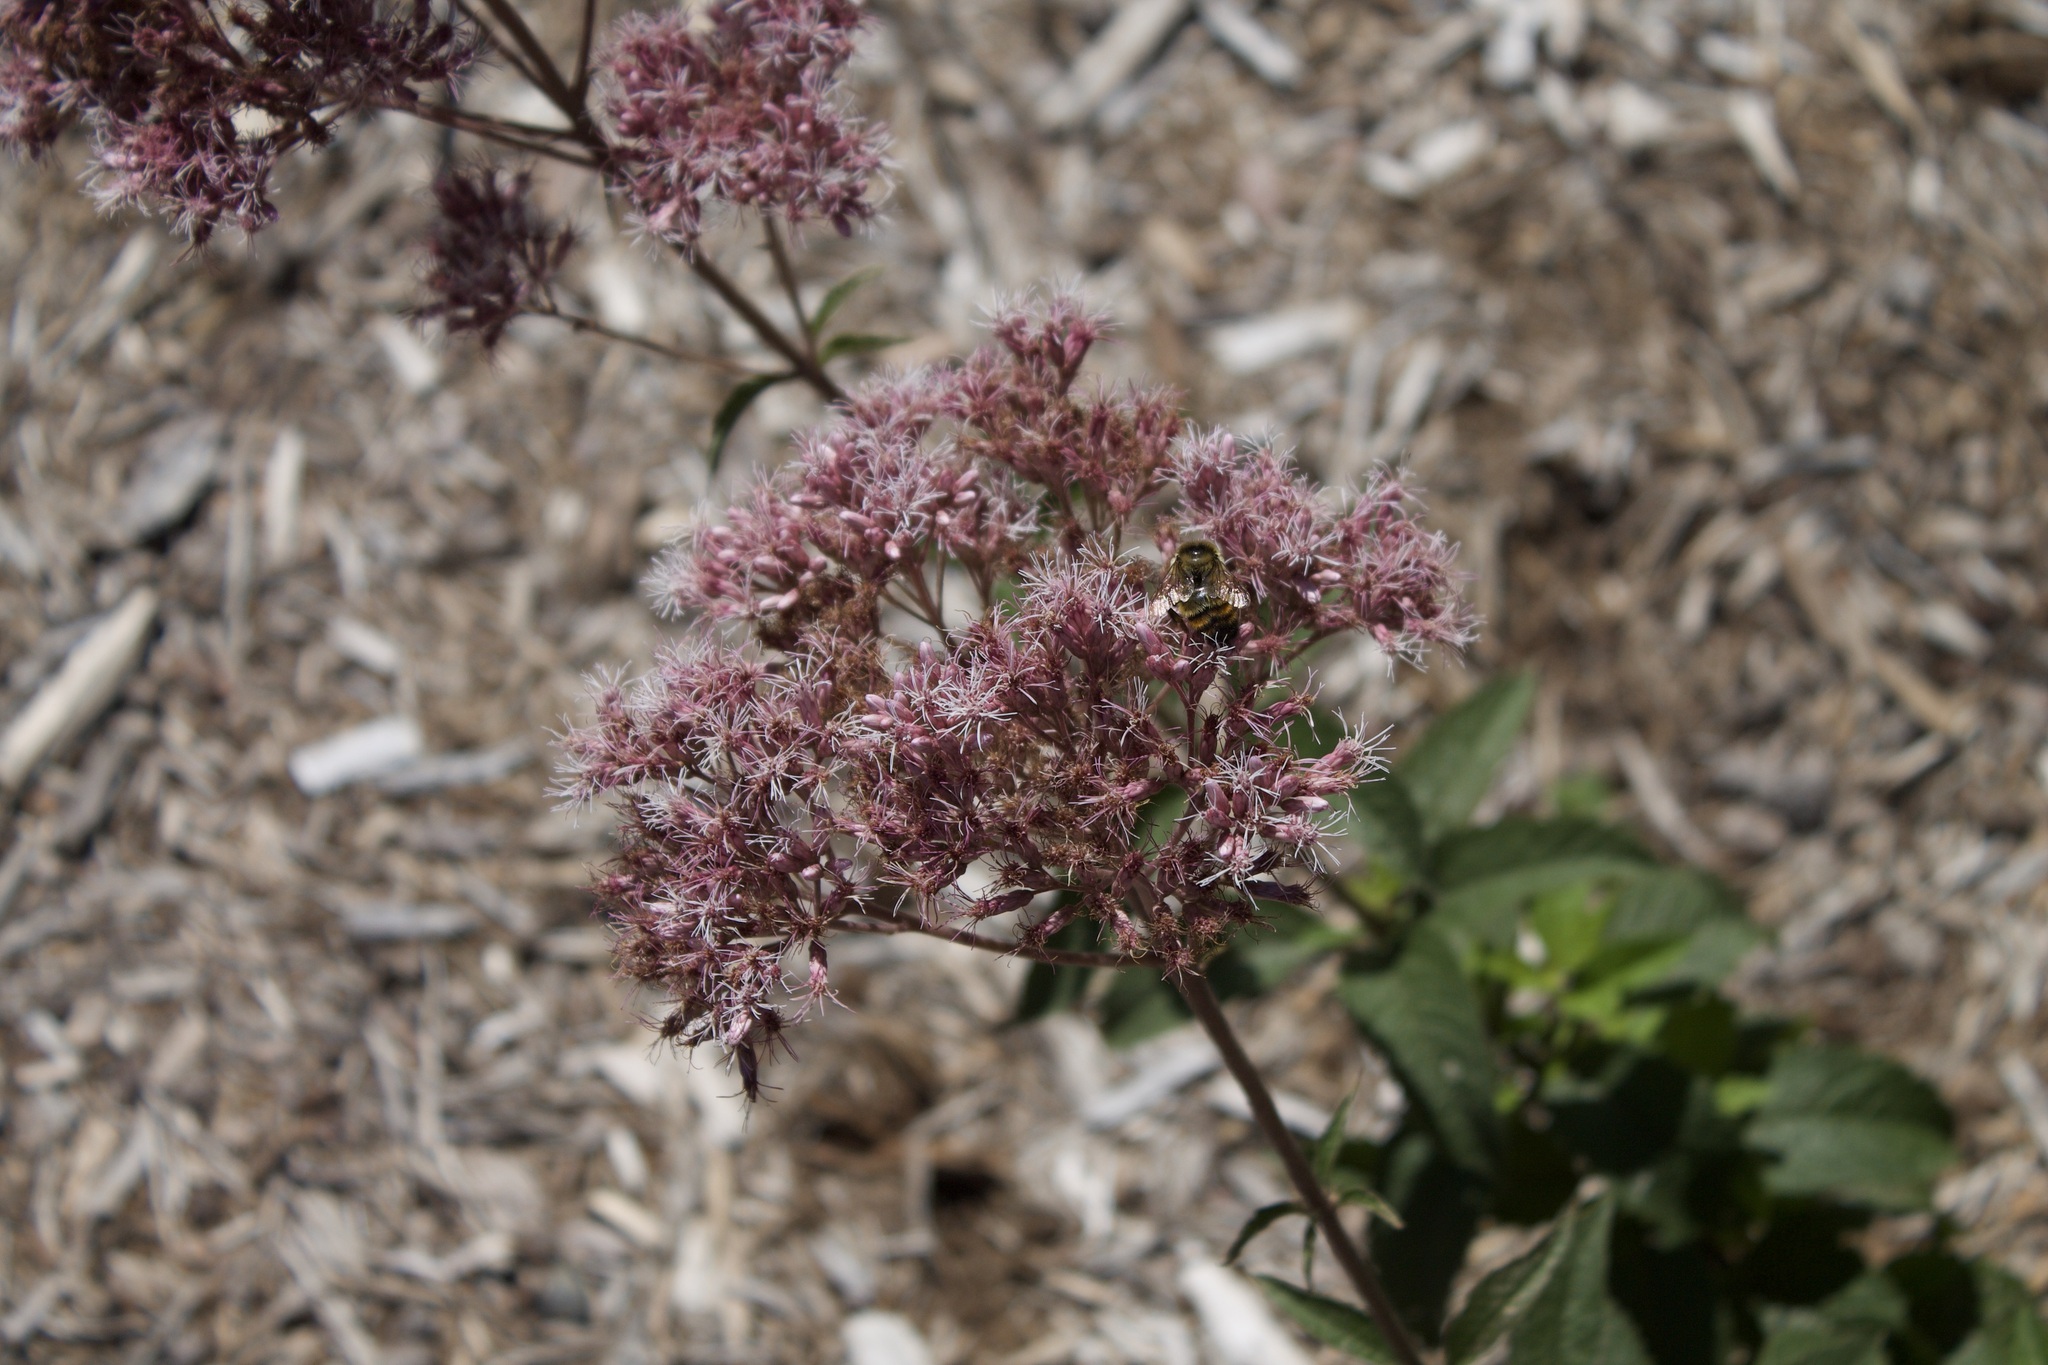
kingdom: Animalia
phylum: Arthropoda
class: Insecta
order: Hymenoptera
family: Apidae
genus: Bombus
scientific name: Bombus rufocinctus
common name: Red-belted bumble bee
